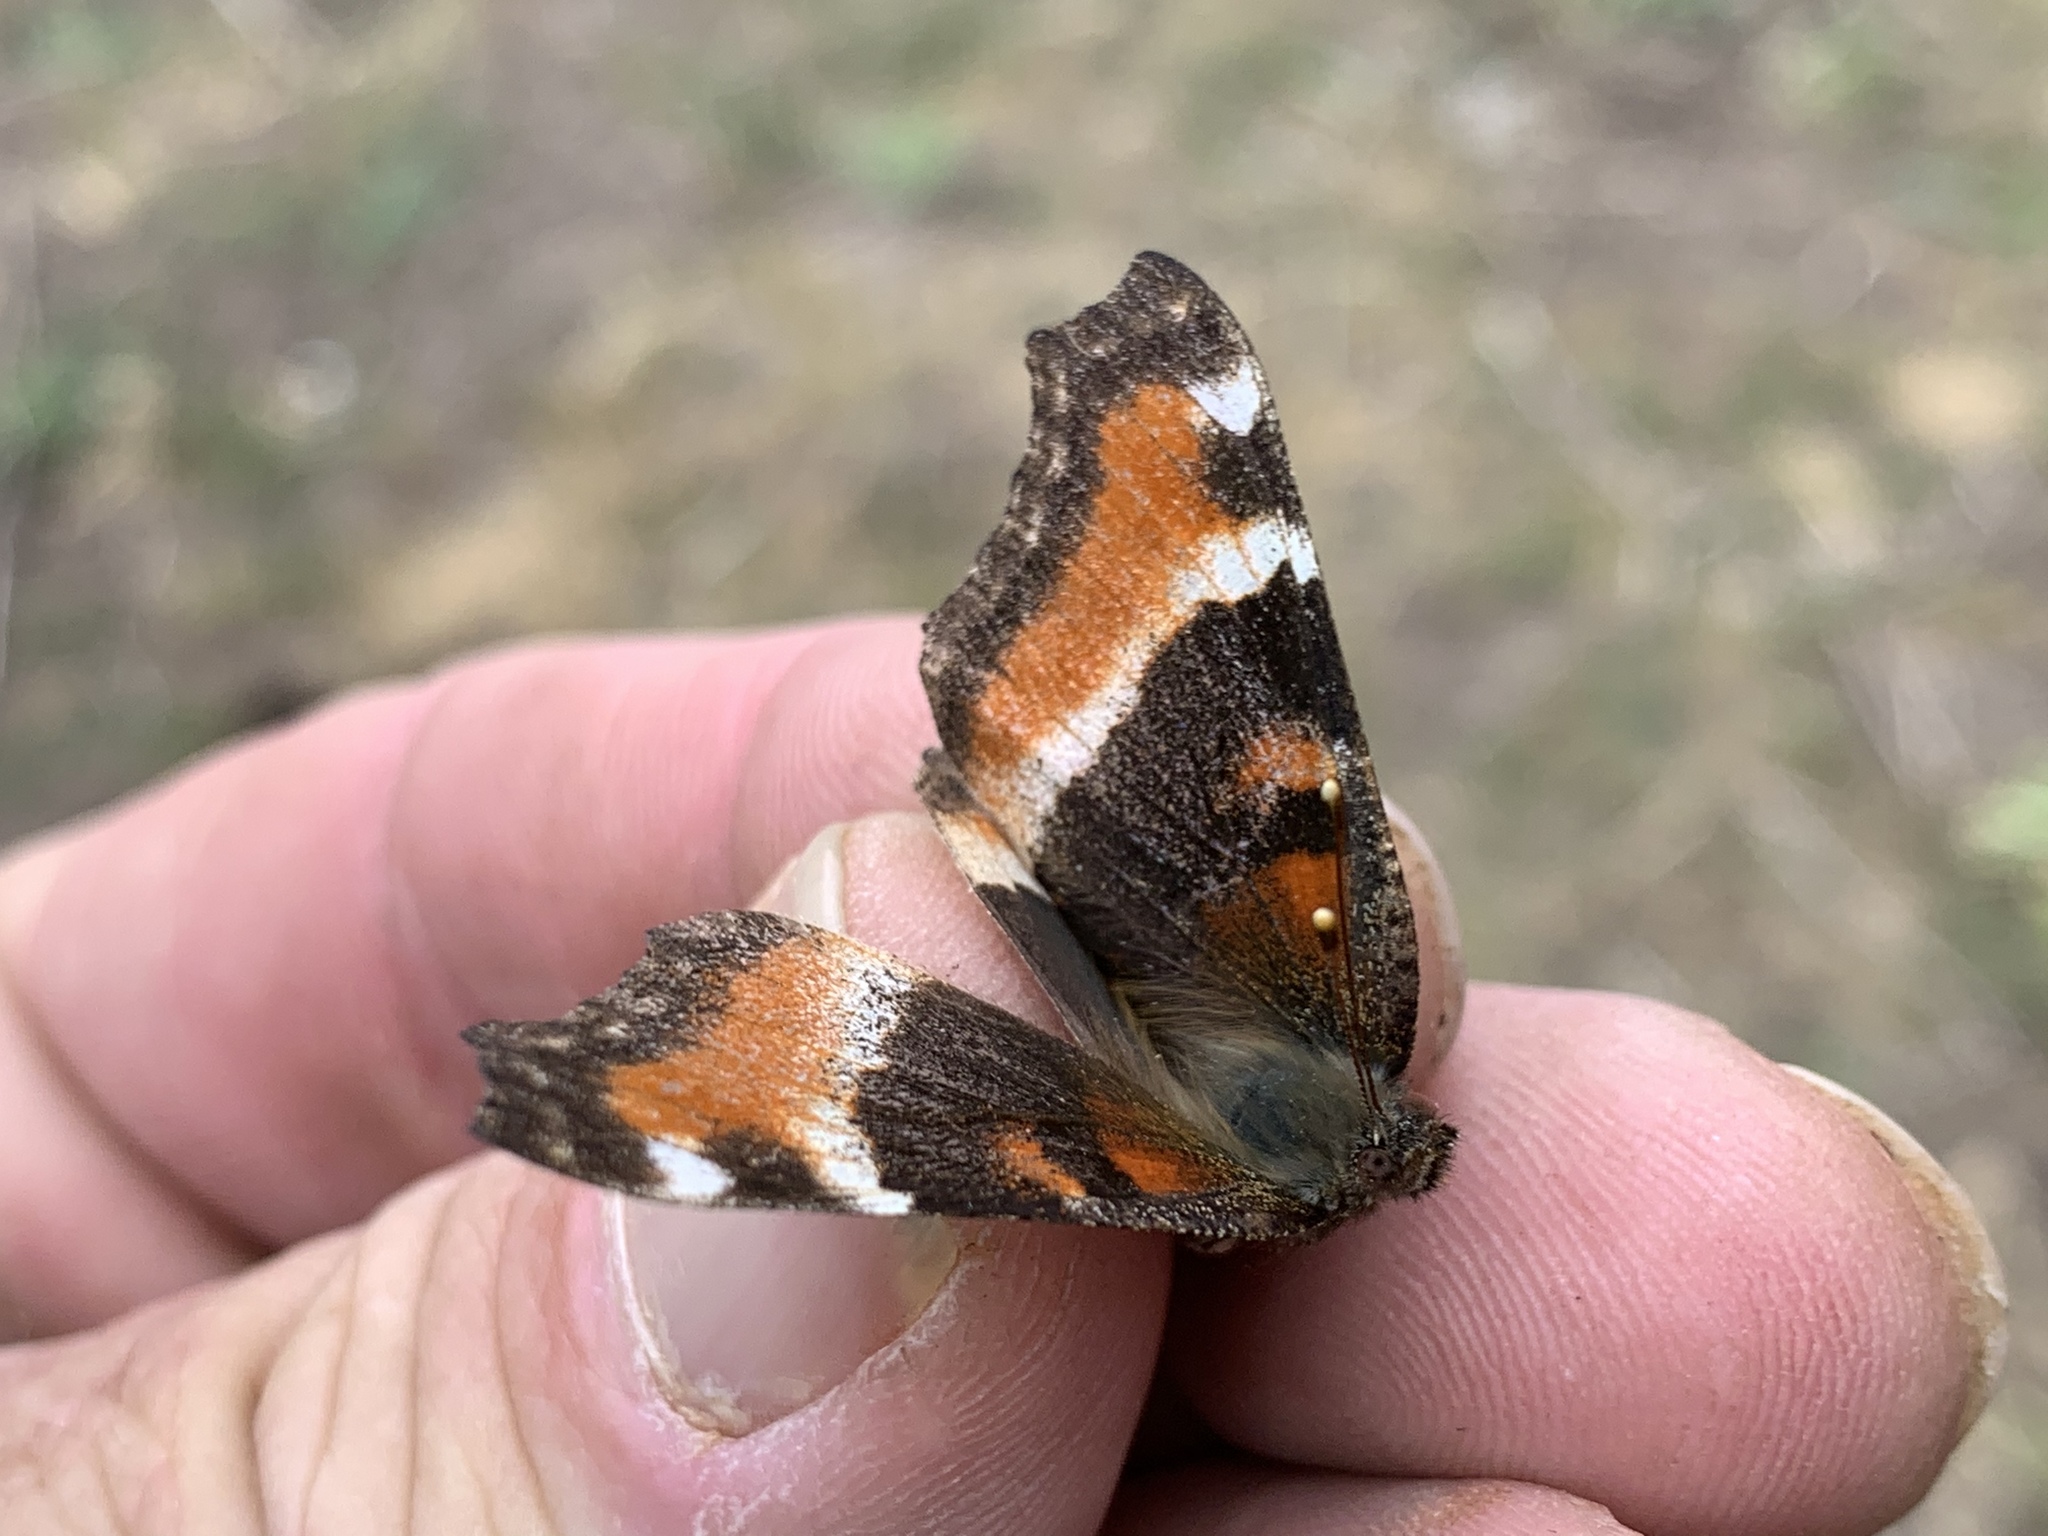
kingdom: Animalia
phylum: Arthropoda
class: Insecta
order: Lepidoptera
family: Nymphalidae
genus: Aglais
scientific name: Aglais milberti
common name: Milbert's tortoiseshell
